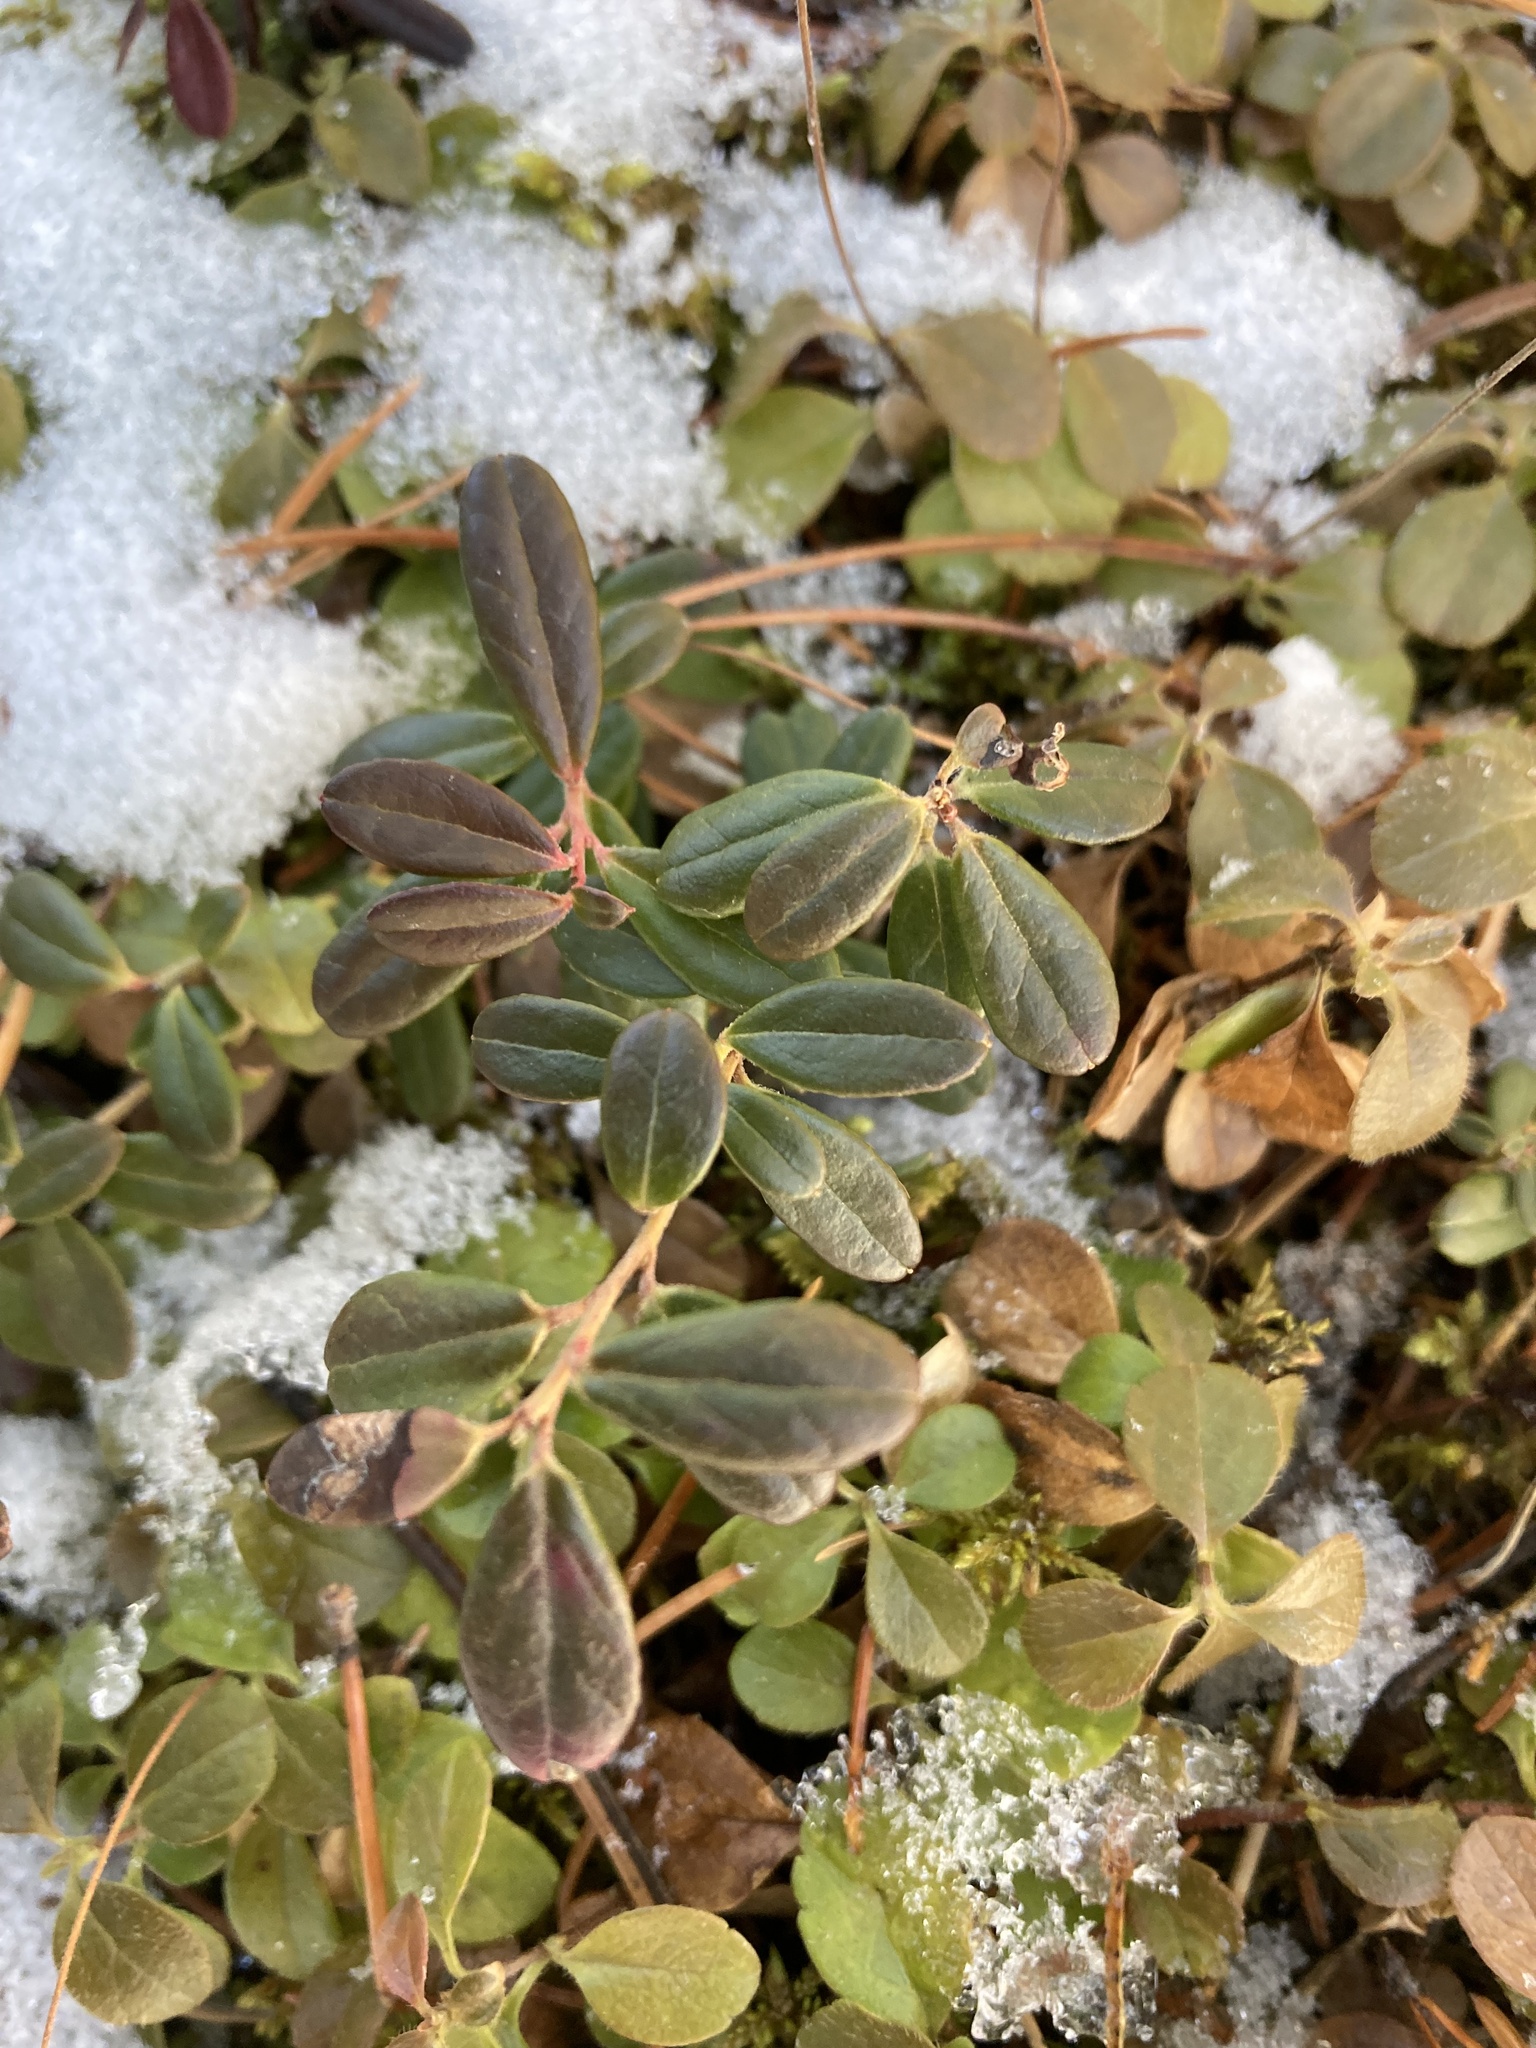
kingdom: Plantae
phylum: Tracheophyta
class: Magnoliopsida
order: Ericales
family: Ericaceae
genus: Vaccinium
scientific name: Vaccinium vitis-idaea
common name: Cowberry
